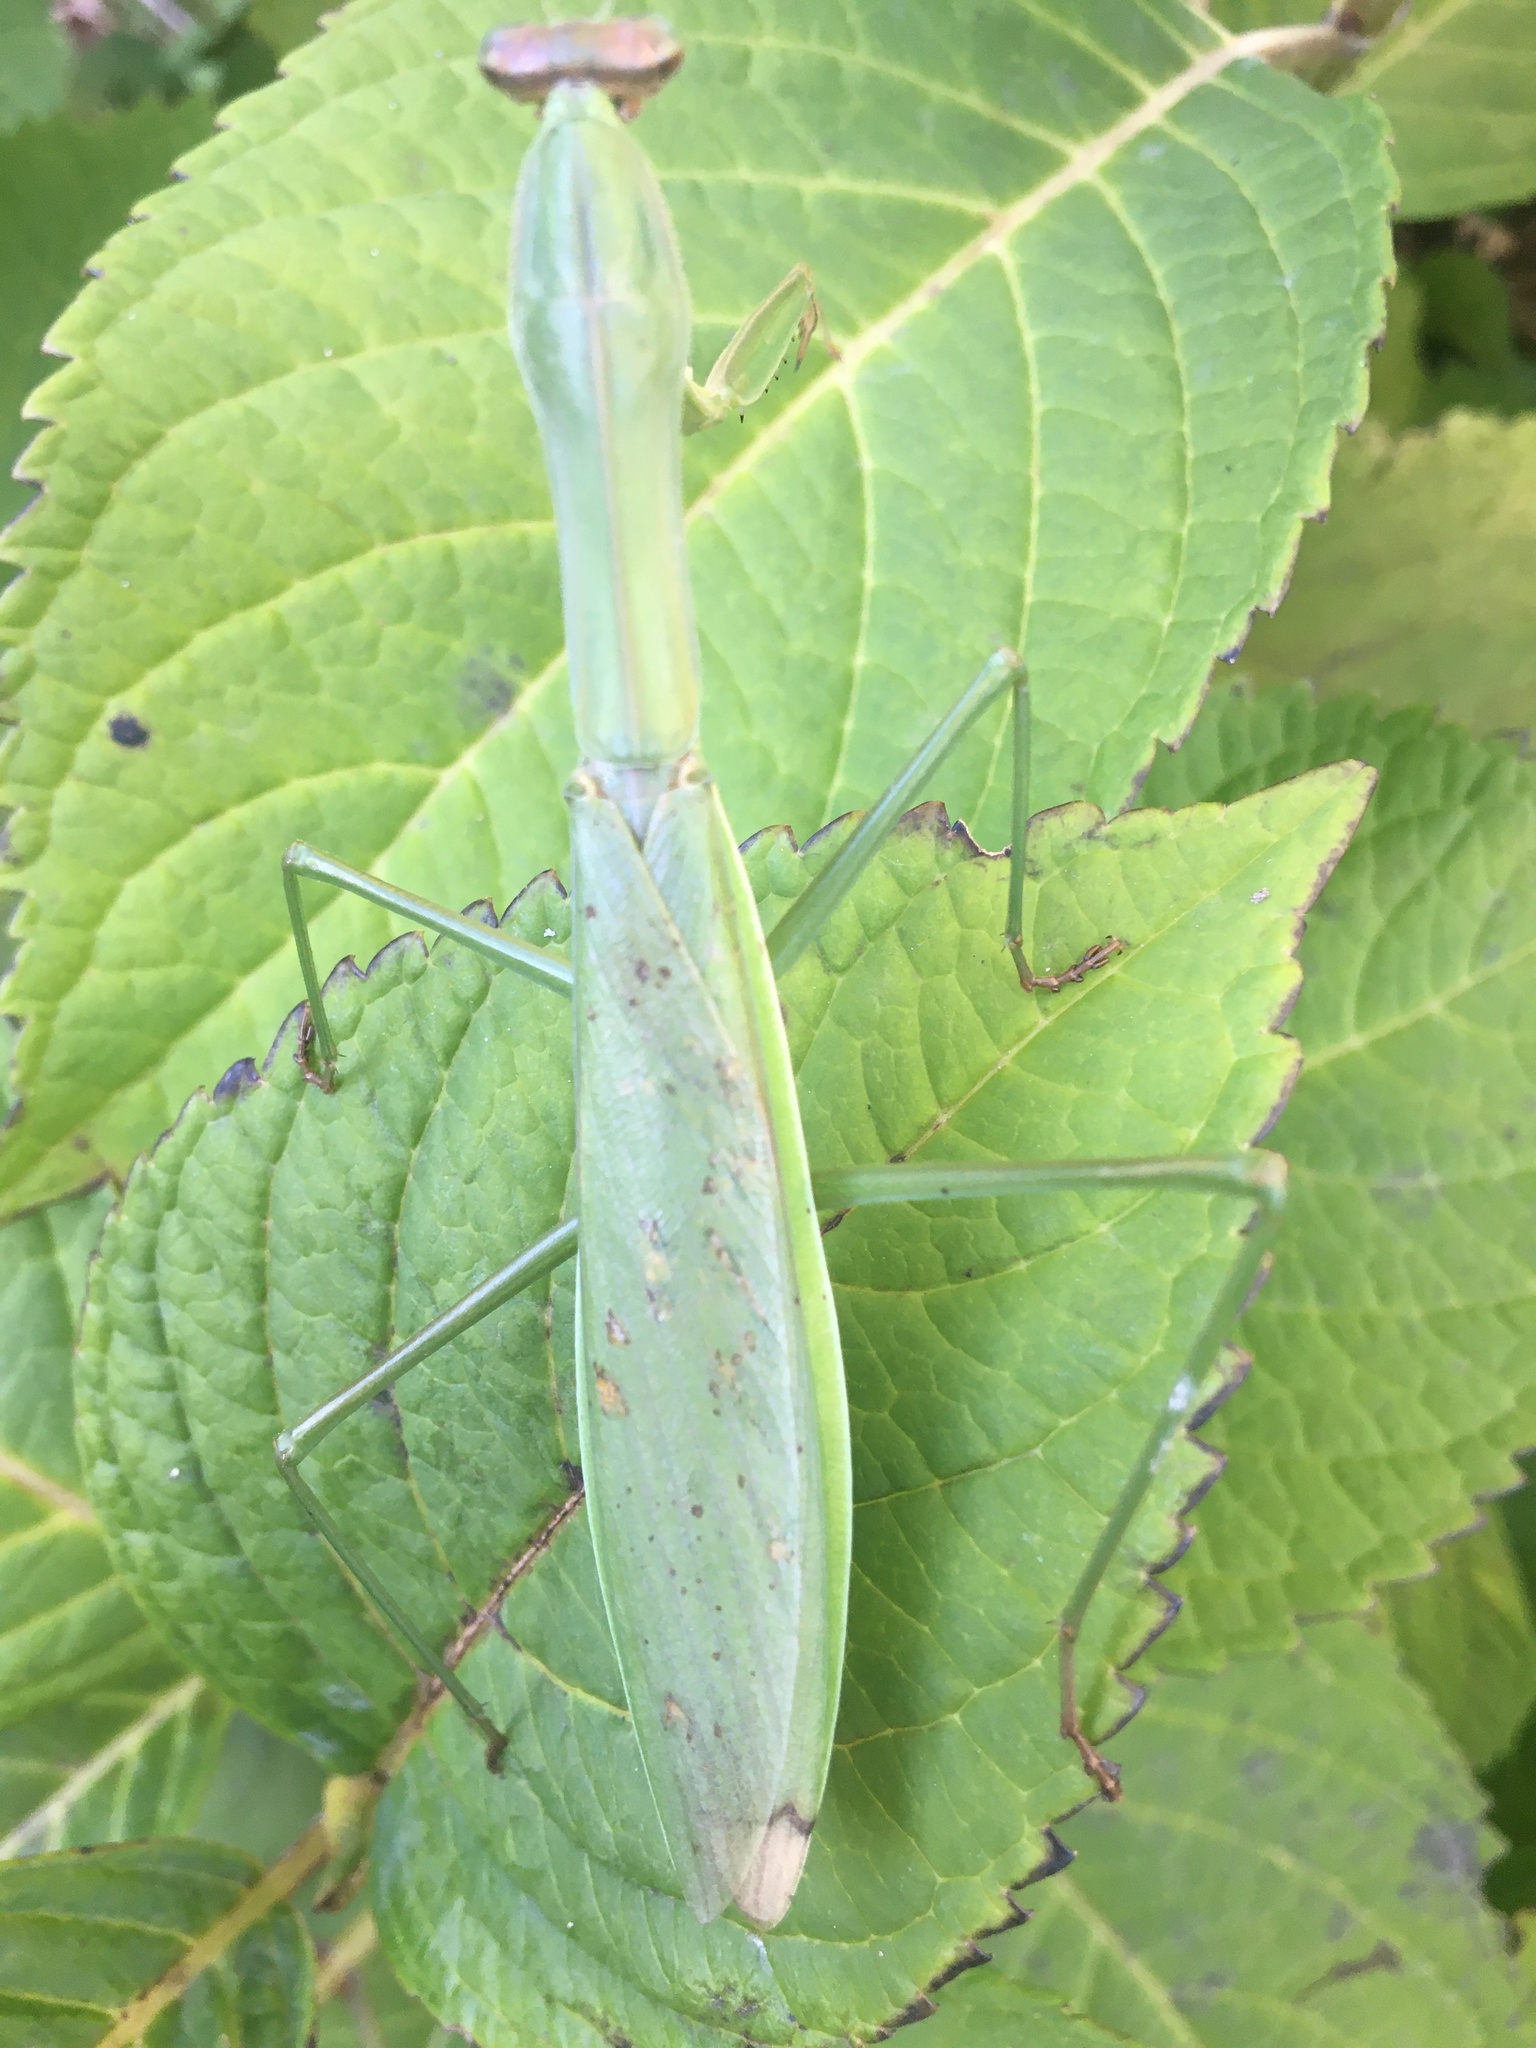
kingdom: Animalia
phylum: Arthropoda
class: Insecta
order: Mantodea
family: Mantidae
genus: Tenodera
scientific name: Tenodera sinensis
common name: Chinese mantis
